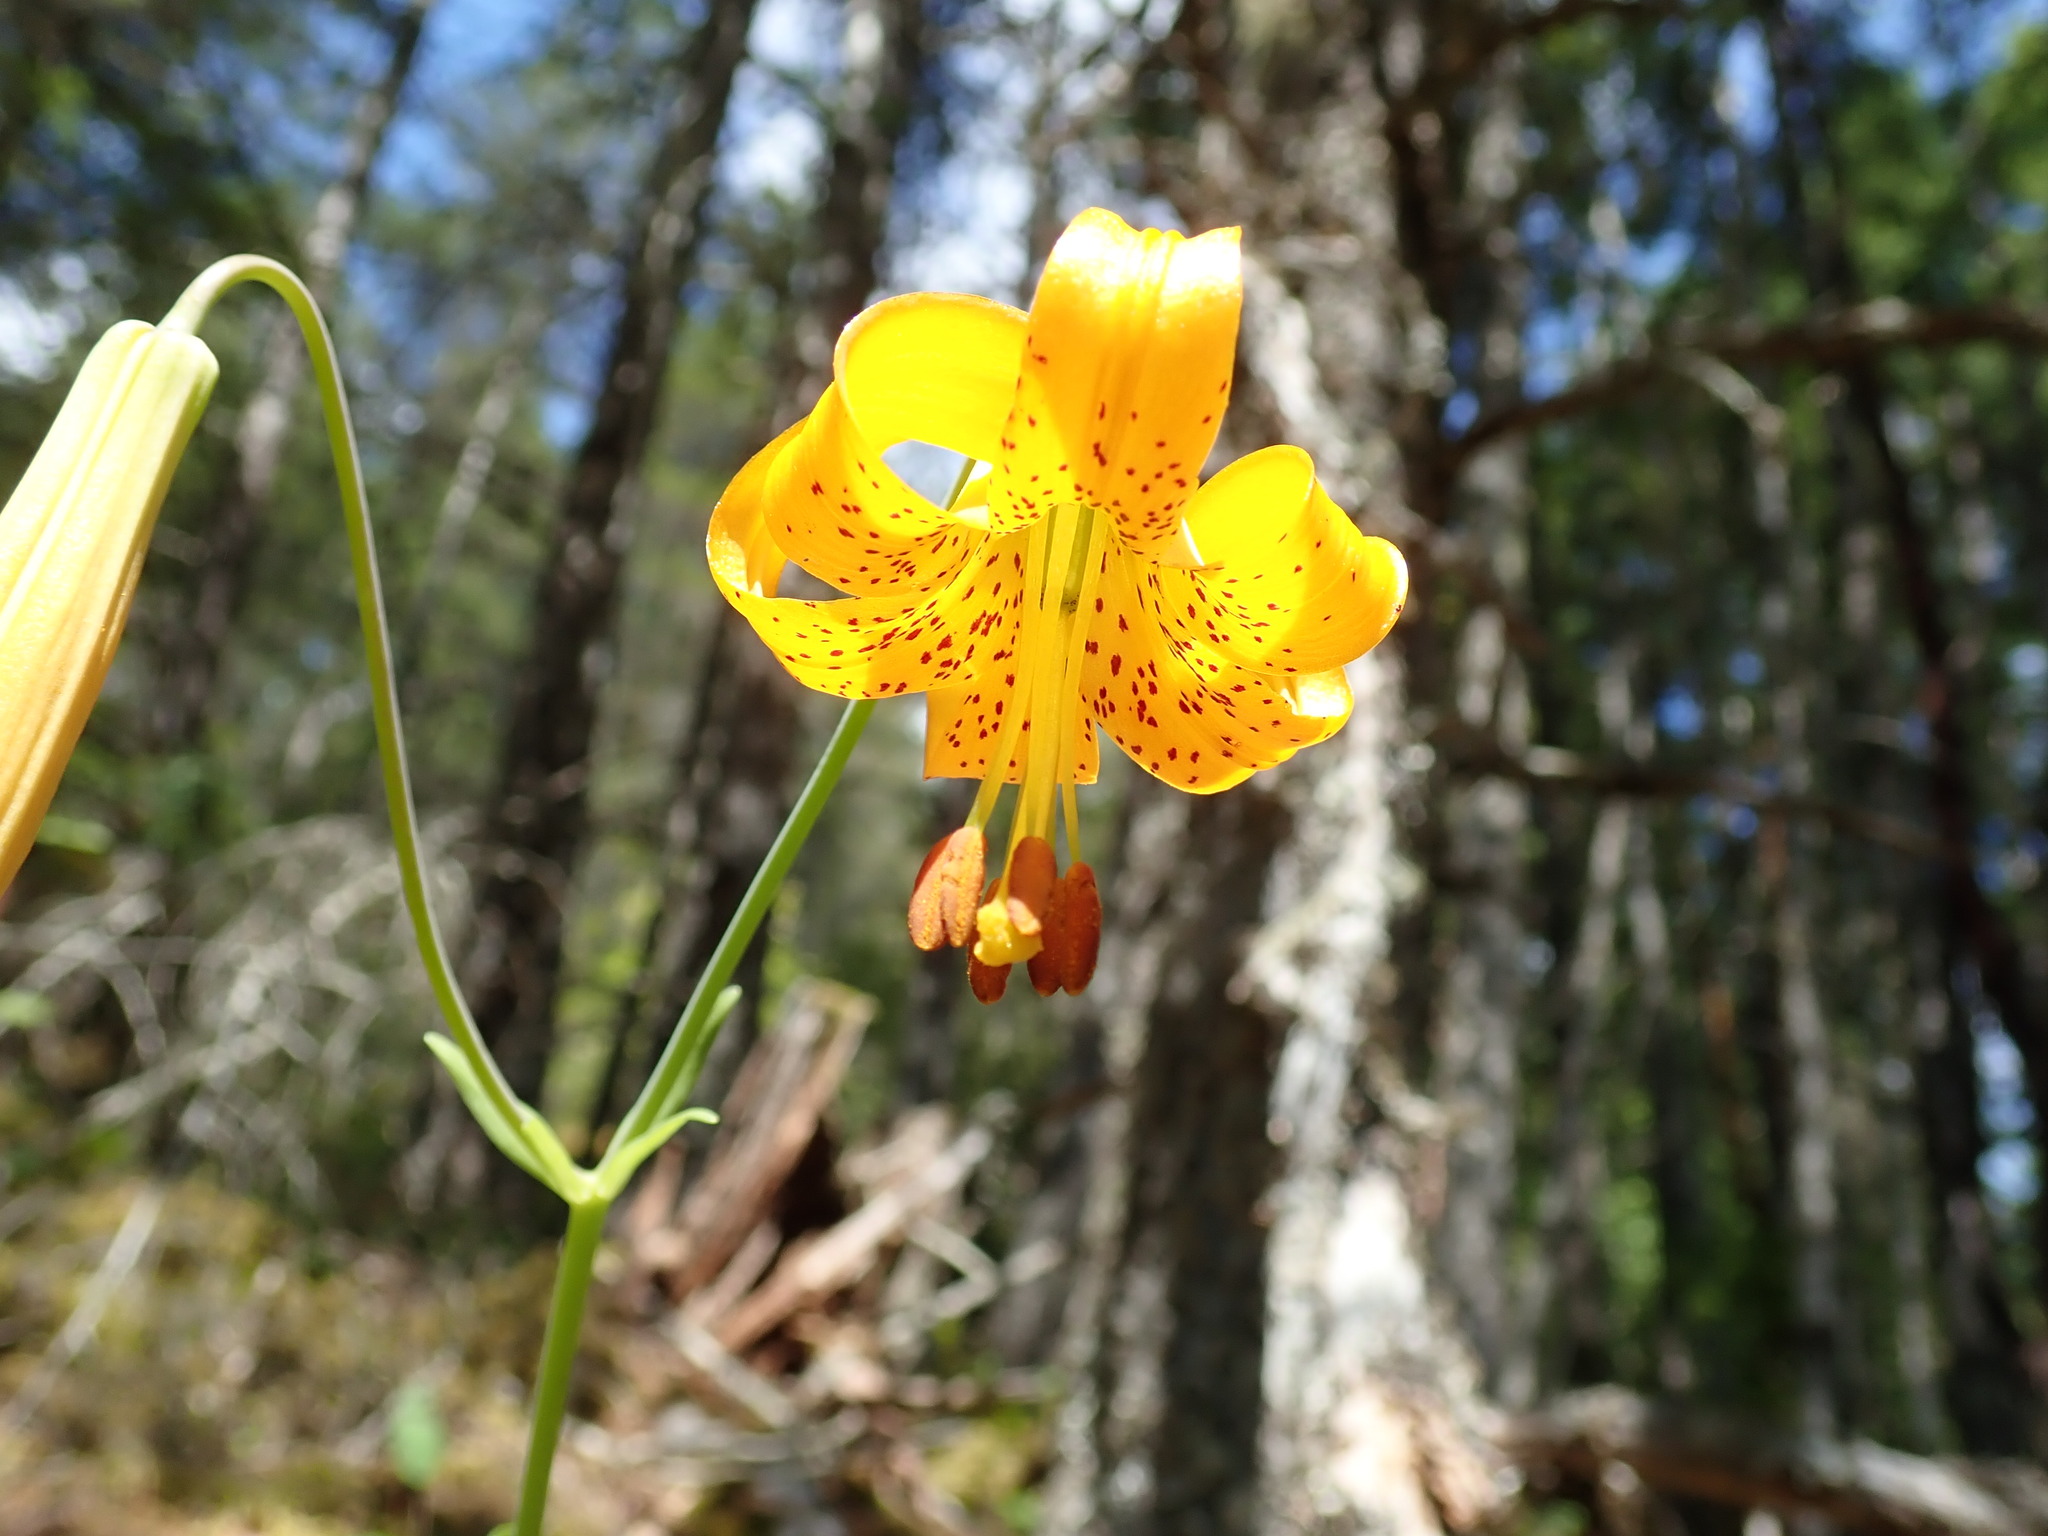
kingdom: Plantae
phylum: Tracheophyta
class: Liliopsida
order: Liliales
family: Liliaceae
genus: Lilium
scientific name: Lilium columbianum
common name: Columbia lily
